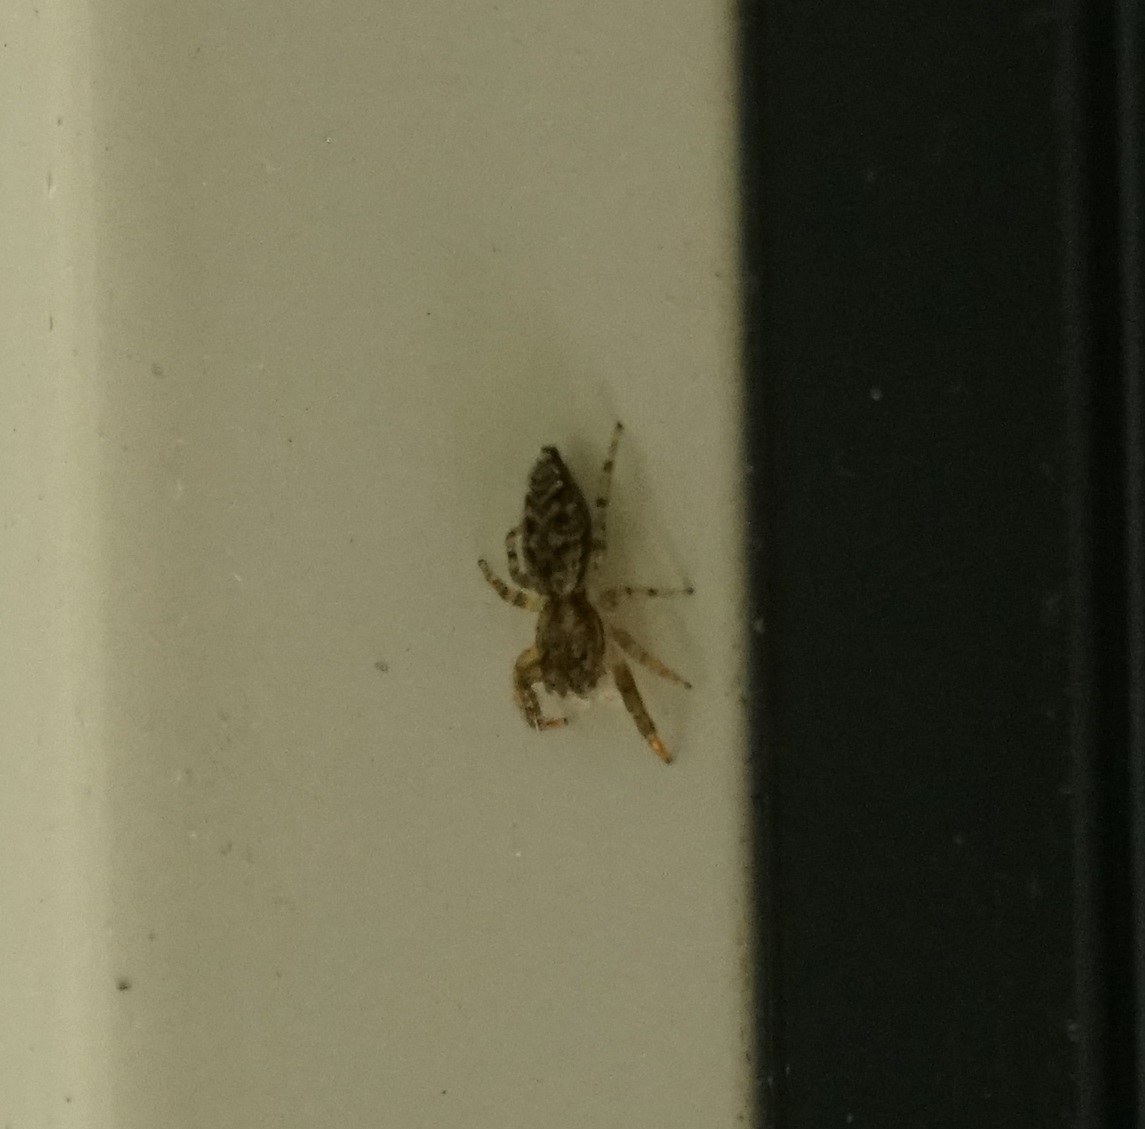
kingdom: Animalia
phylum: Arthropoda
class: Arachnida
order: Araneae
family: Salticidae
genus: Marpissa
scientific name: Marpissa muscosa
